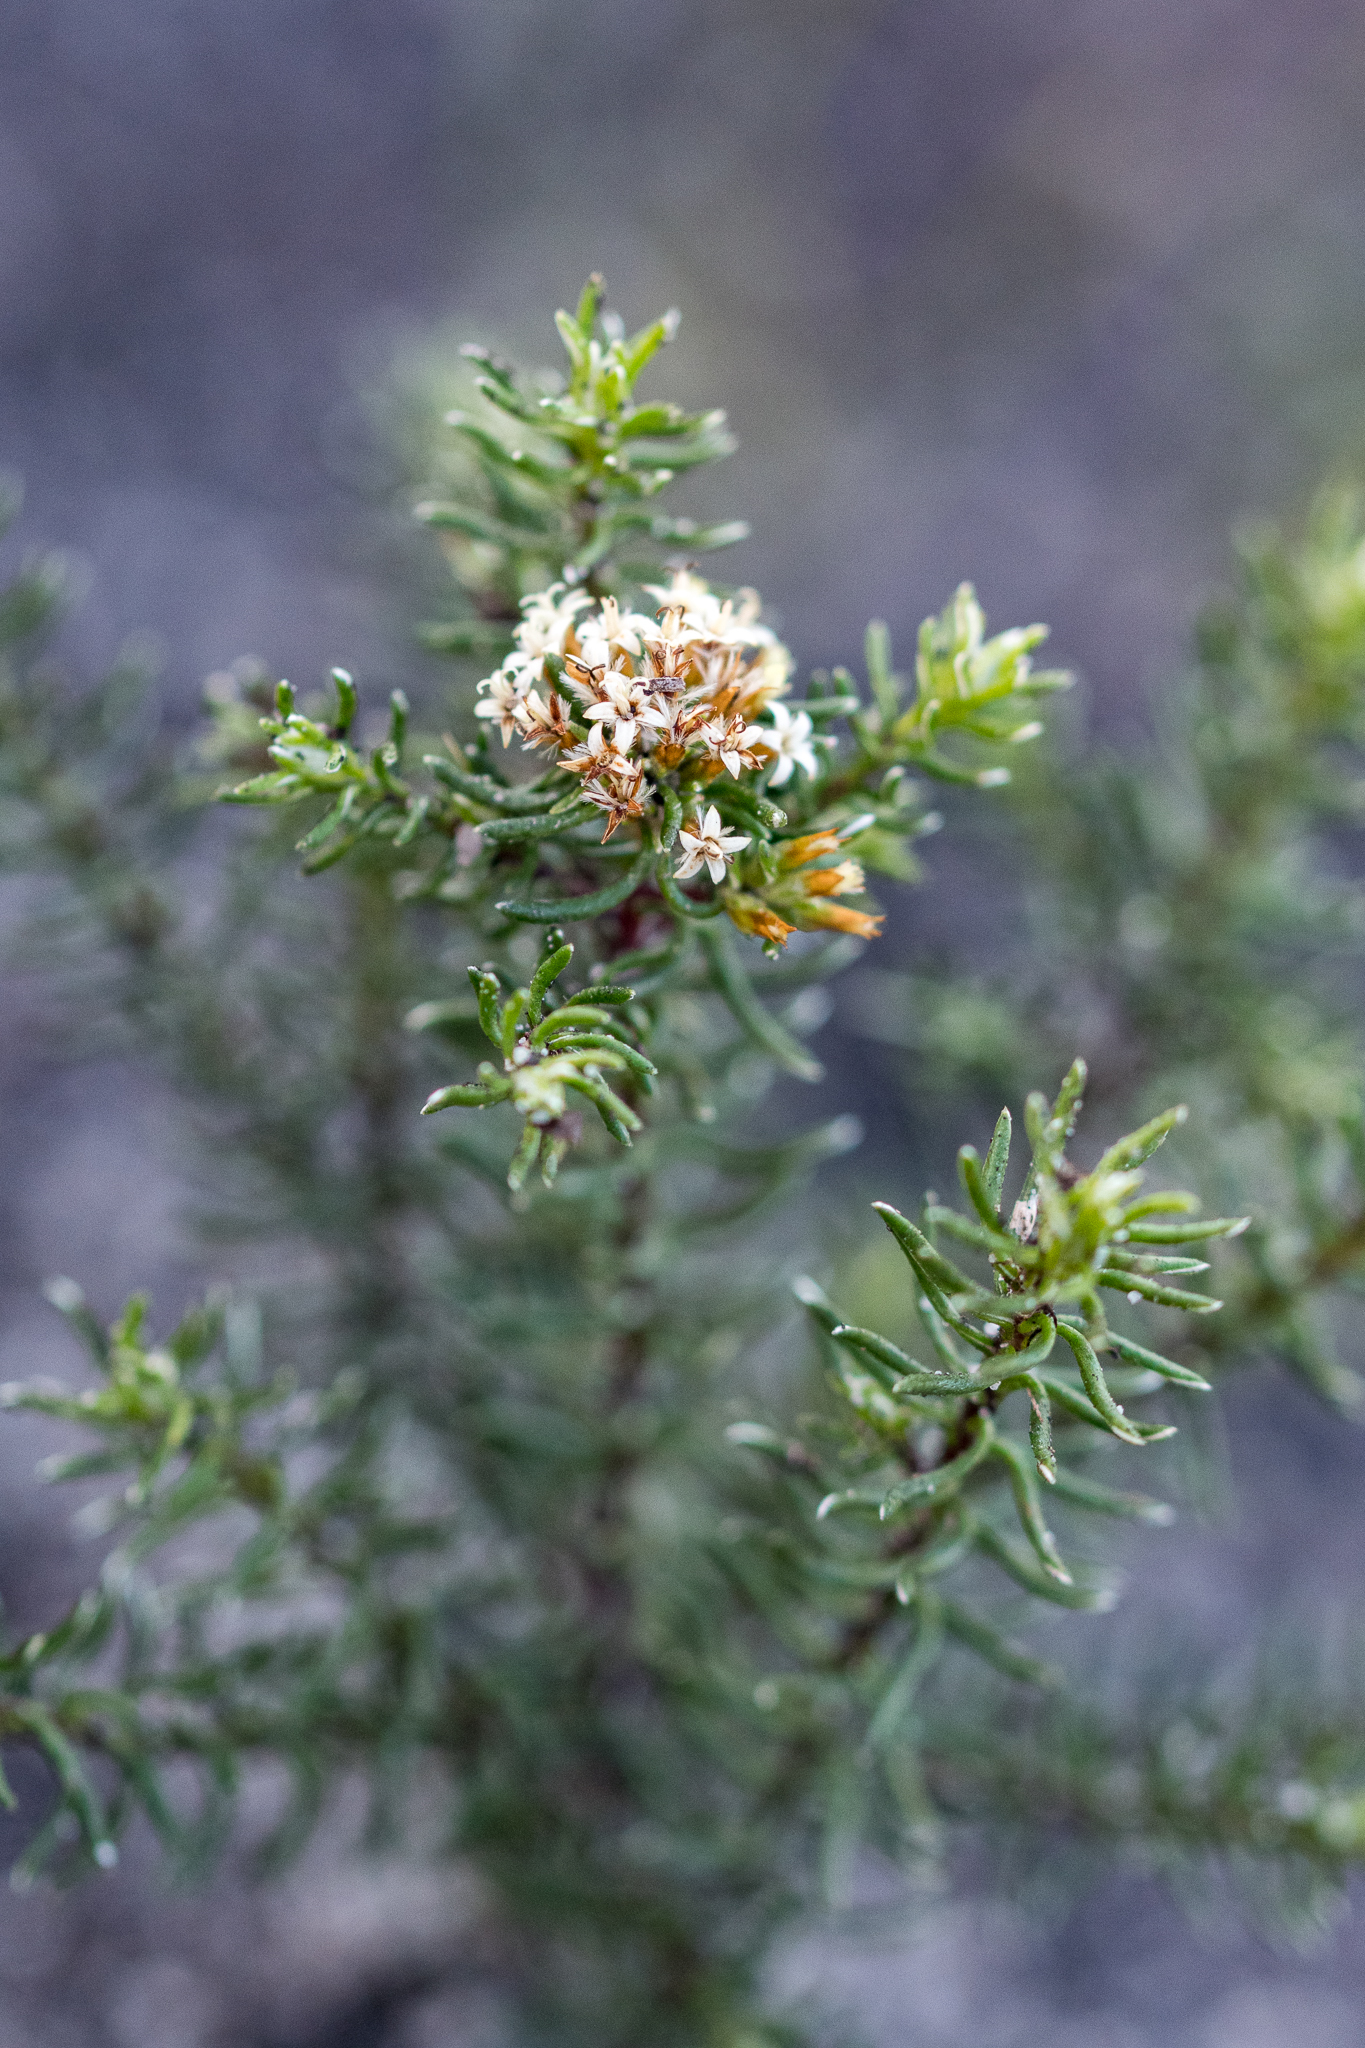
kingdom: Plantae
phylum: Tracheophyta
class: Magnoliopsida
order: Asterales
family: Asteraceae
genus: Stoebe
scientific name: Stoebe cyathuloides
